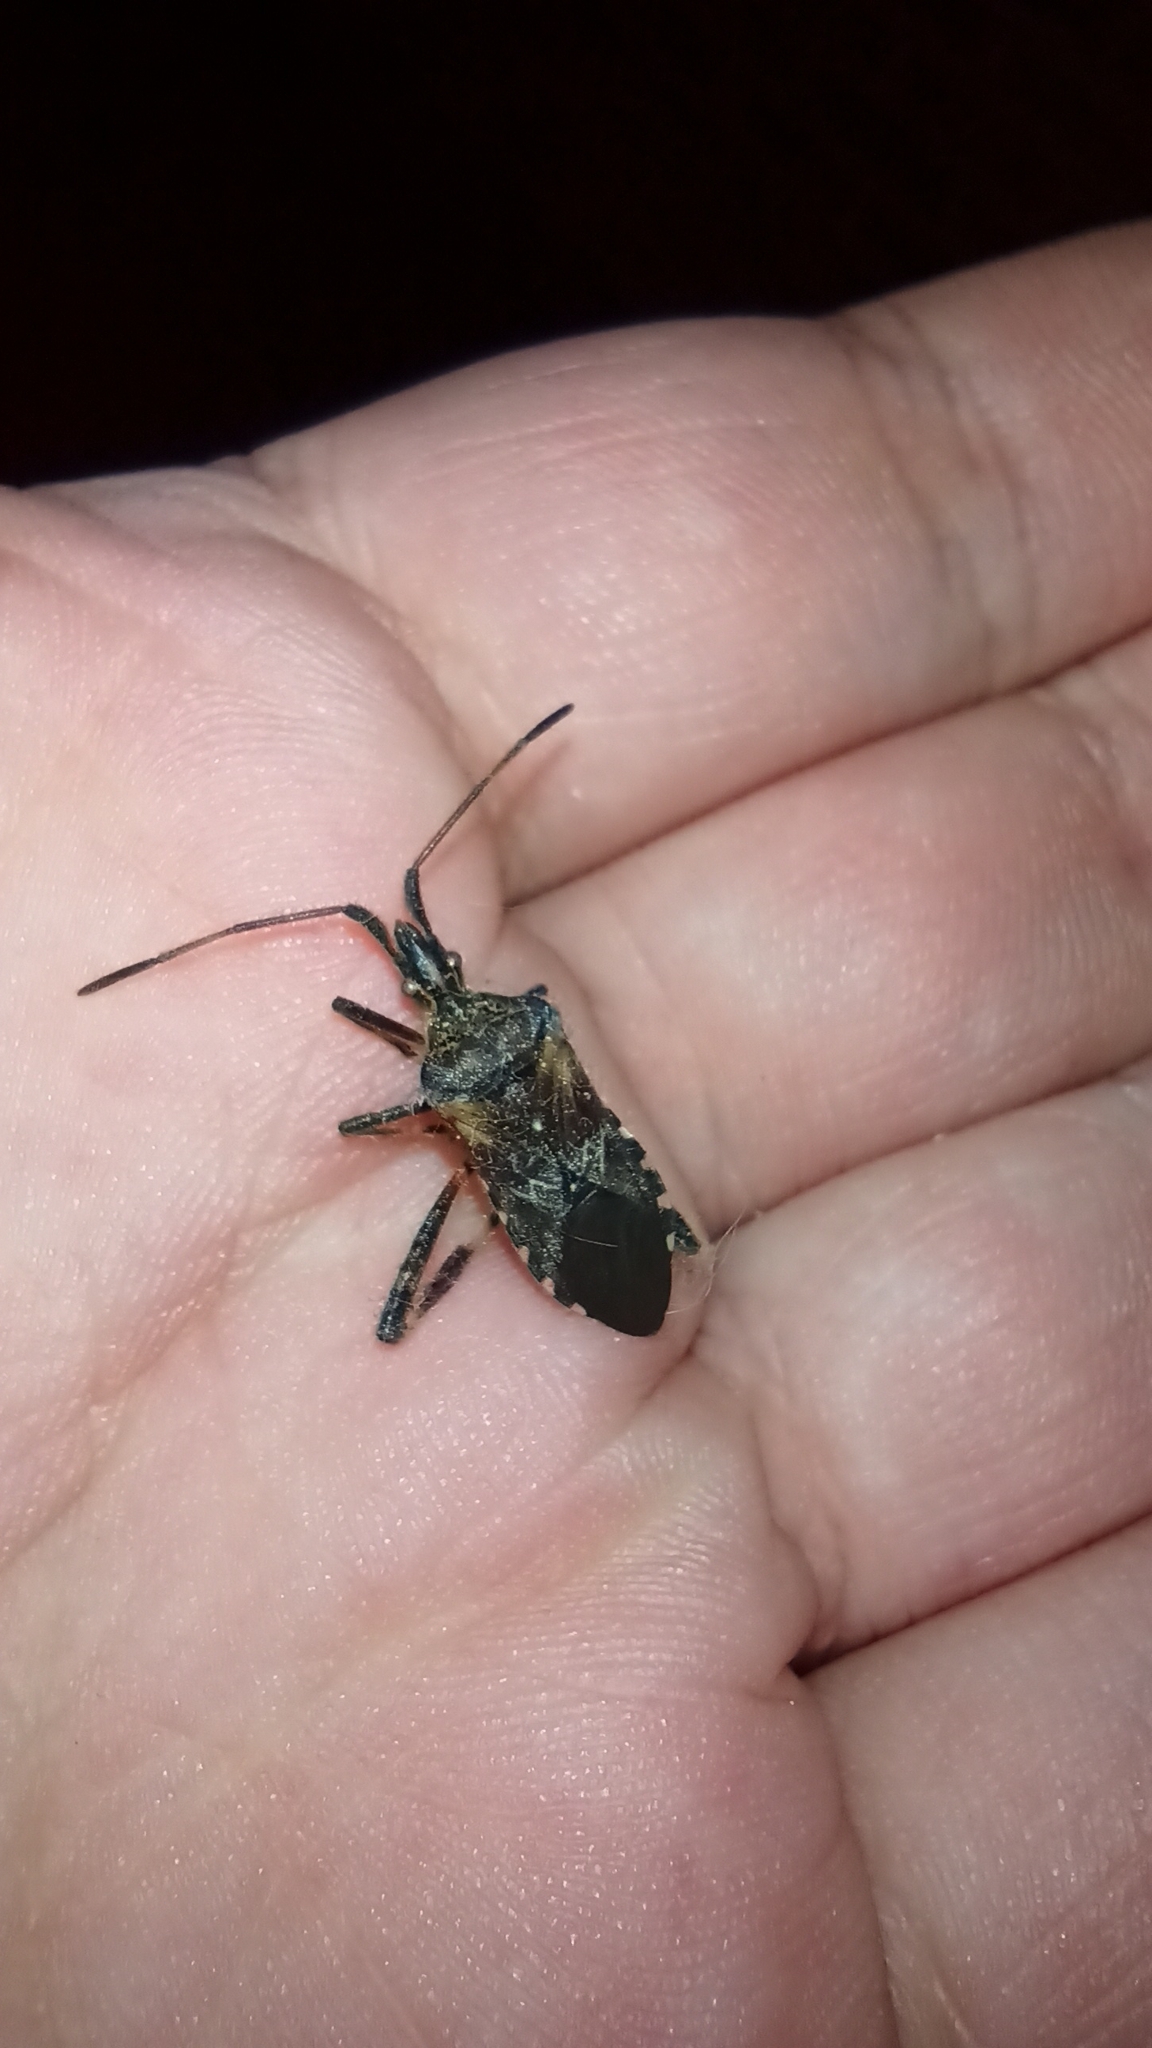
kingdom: Animalia
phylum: Arthropoda
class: Insecta
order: Hemiptera
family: Coreidae
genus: Leptoglossus
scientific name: Leptoglossus occidentalis
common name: Western conifer-seed bug
